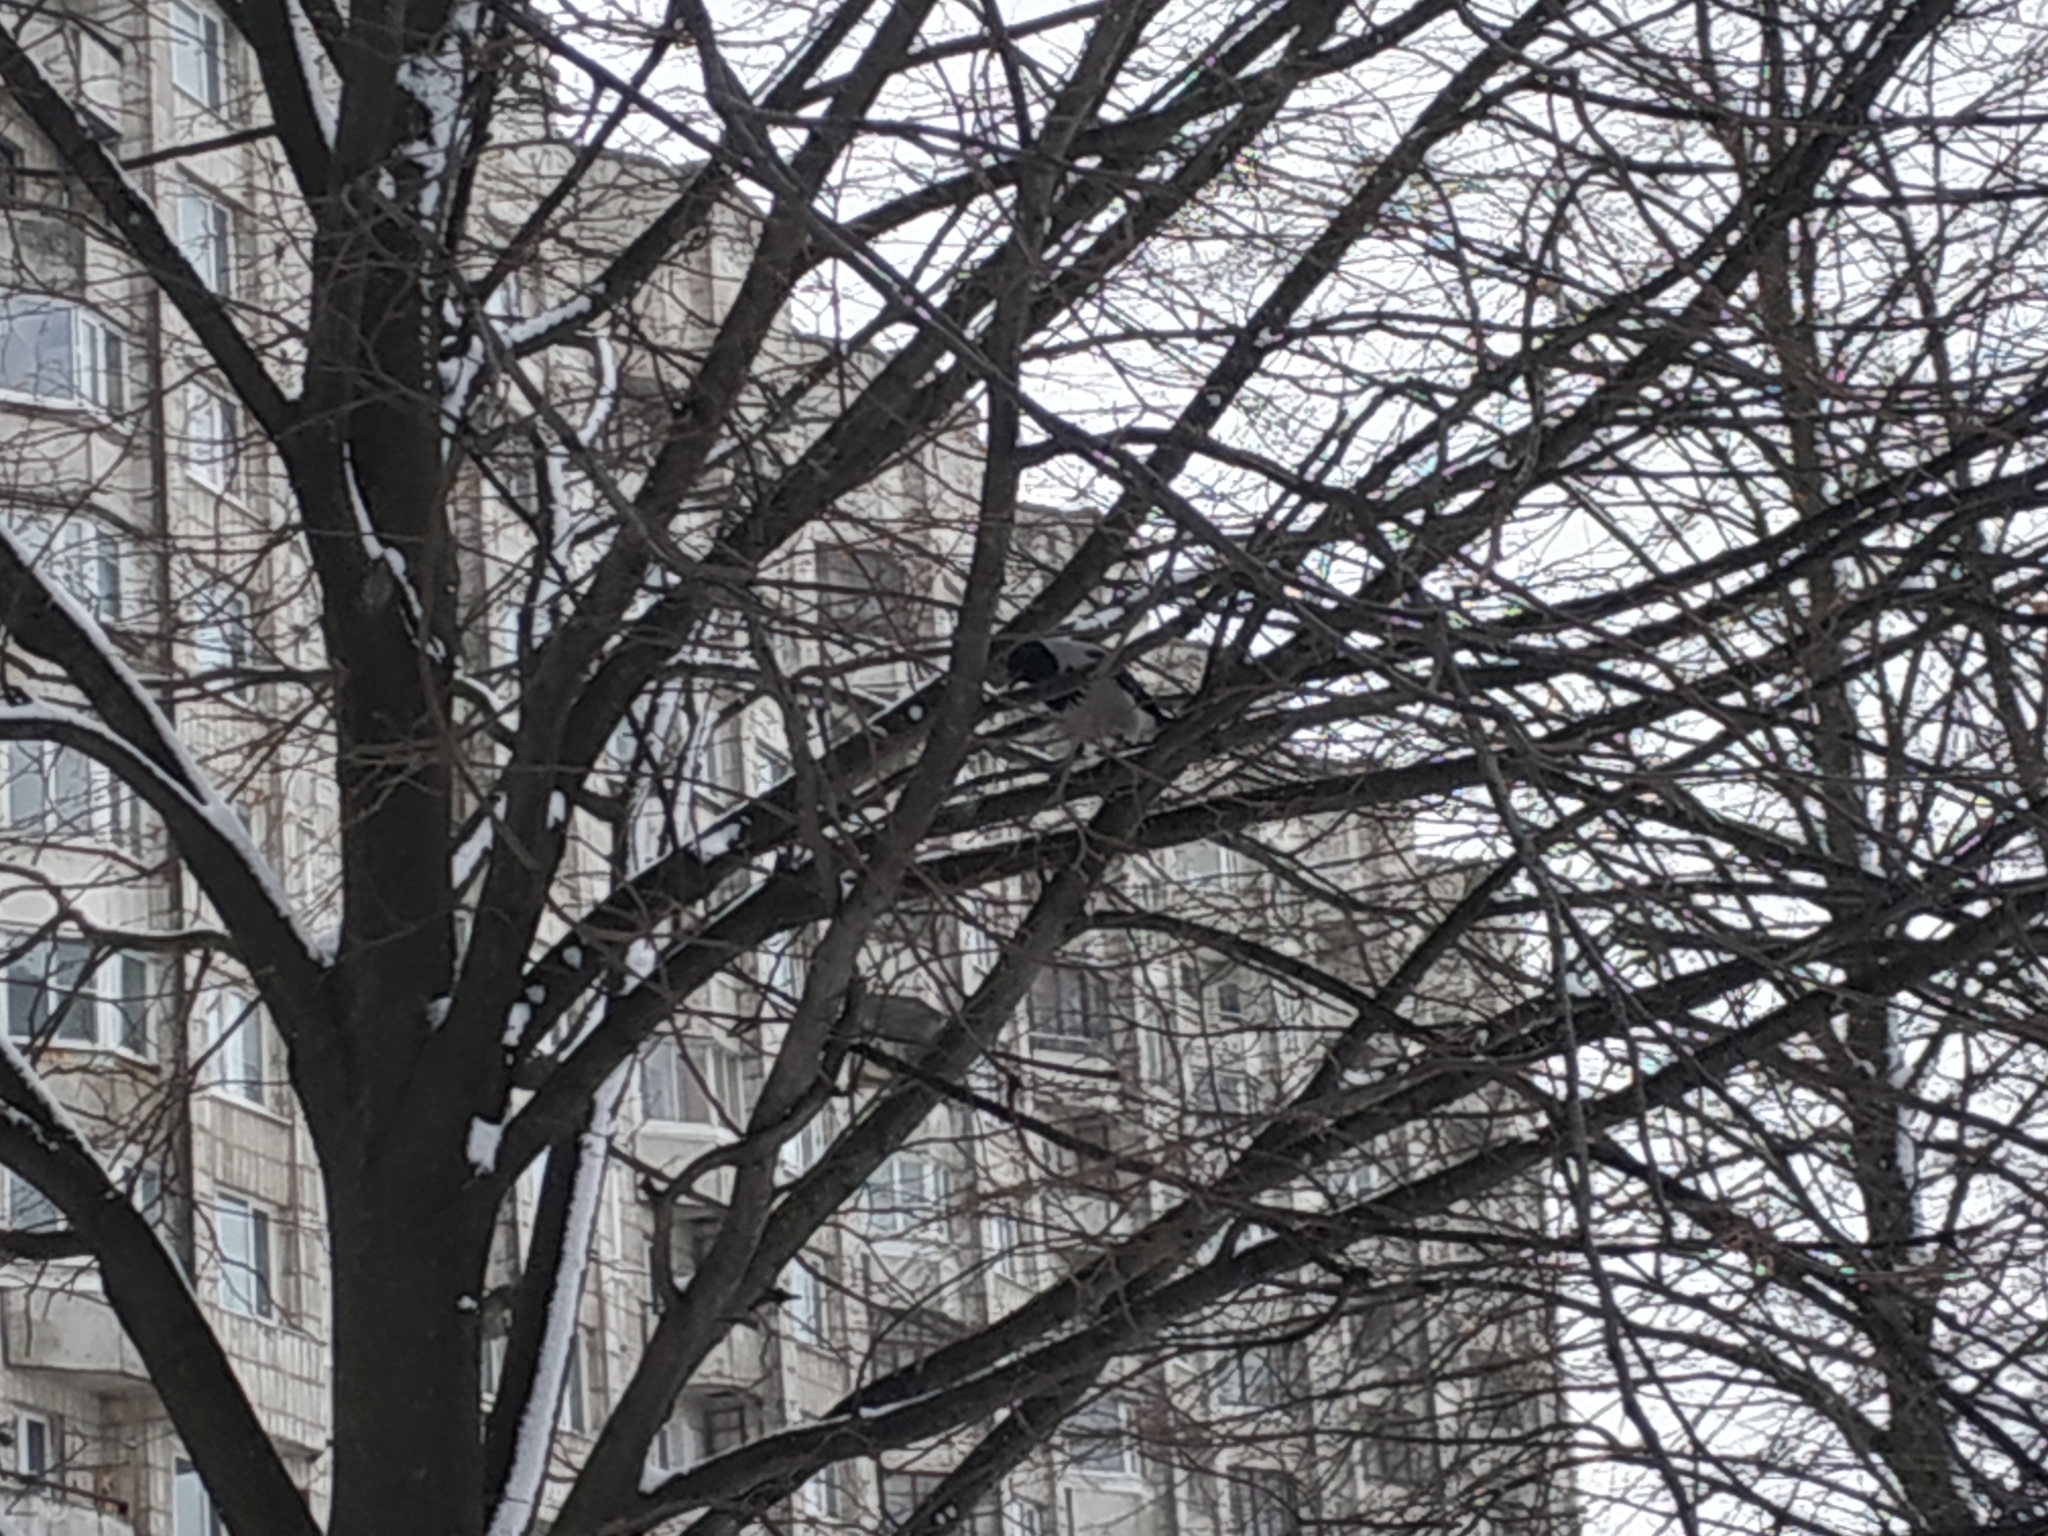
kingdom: Animalia
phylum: Chordata
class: Aves
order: Passeriformes
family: Corvidae
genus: Corvus
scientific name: Corvus cornix
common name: Hooded crow
